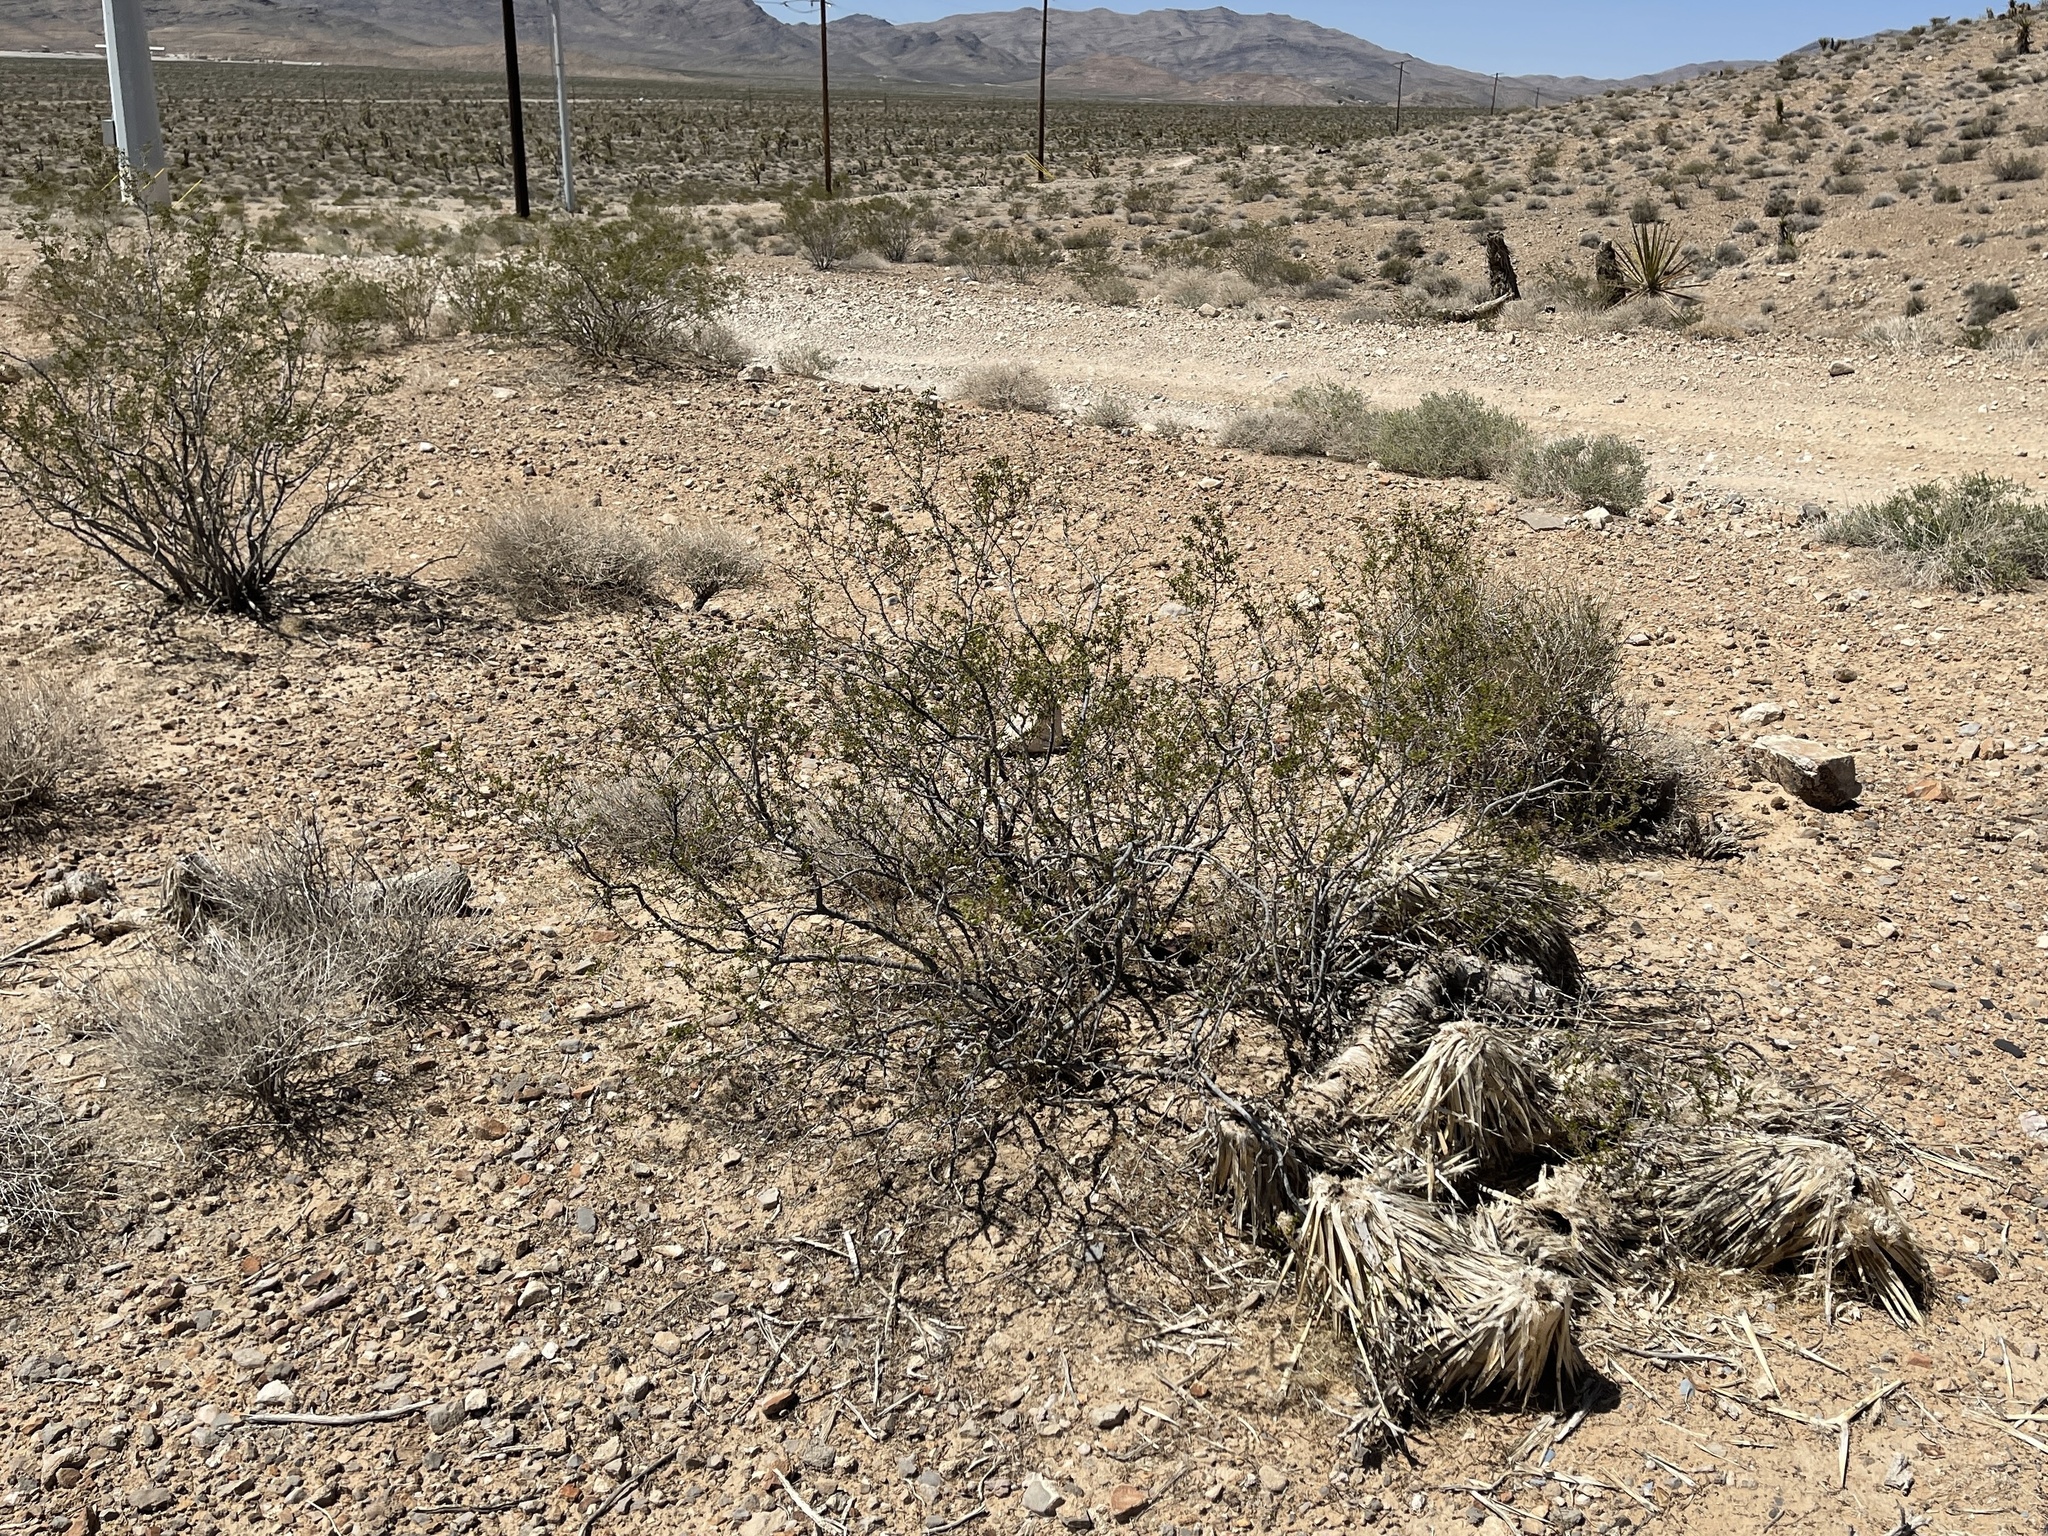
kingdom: Plantae
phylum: Tracheophyta
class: Magnoliopsida
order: Zygophyllales
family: Zygophyllaceae
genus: Larrea
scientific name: Larrea tridentata
